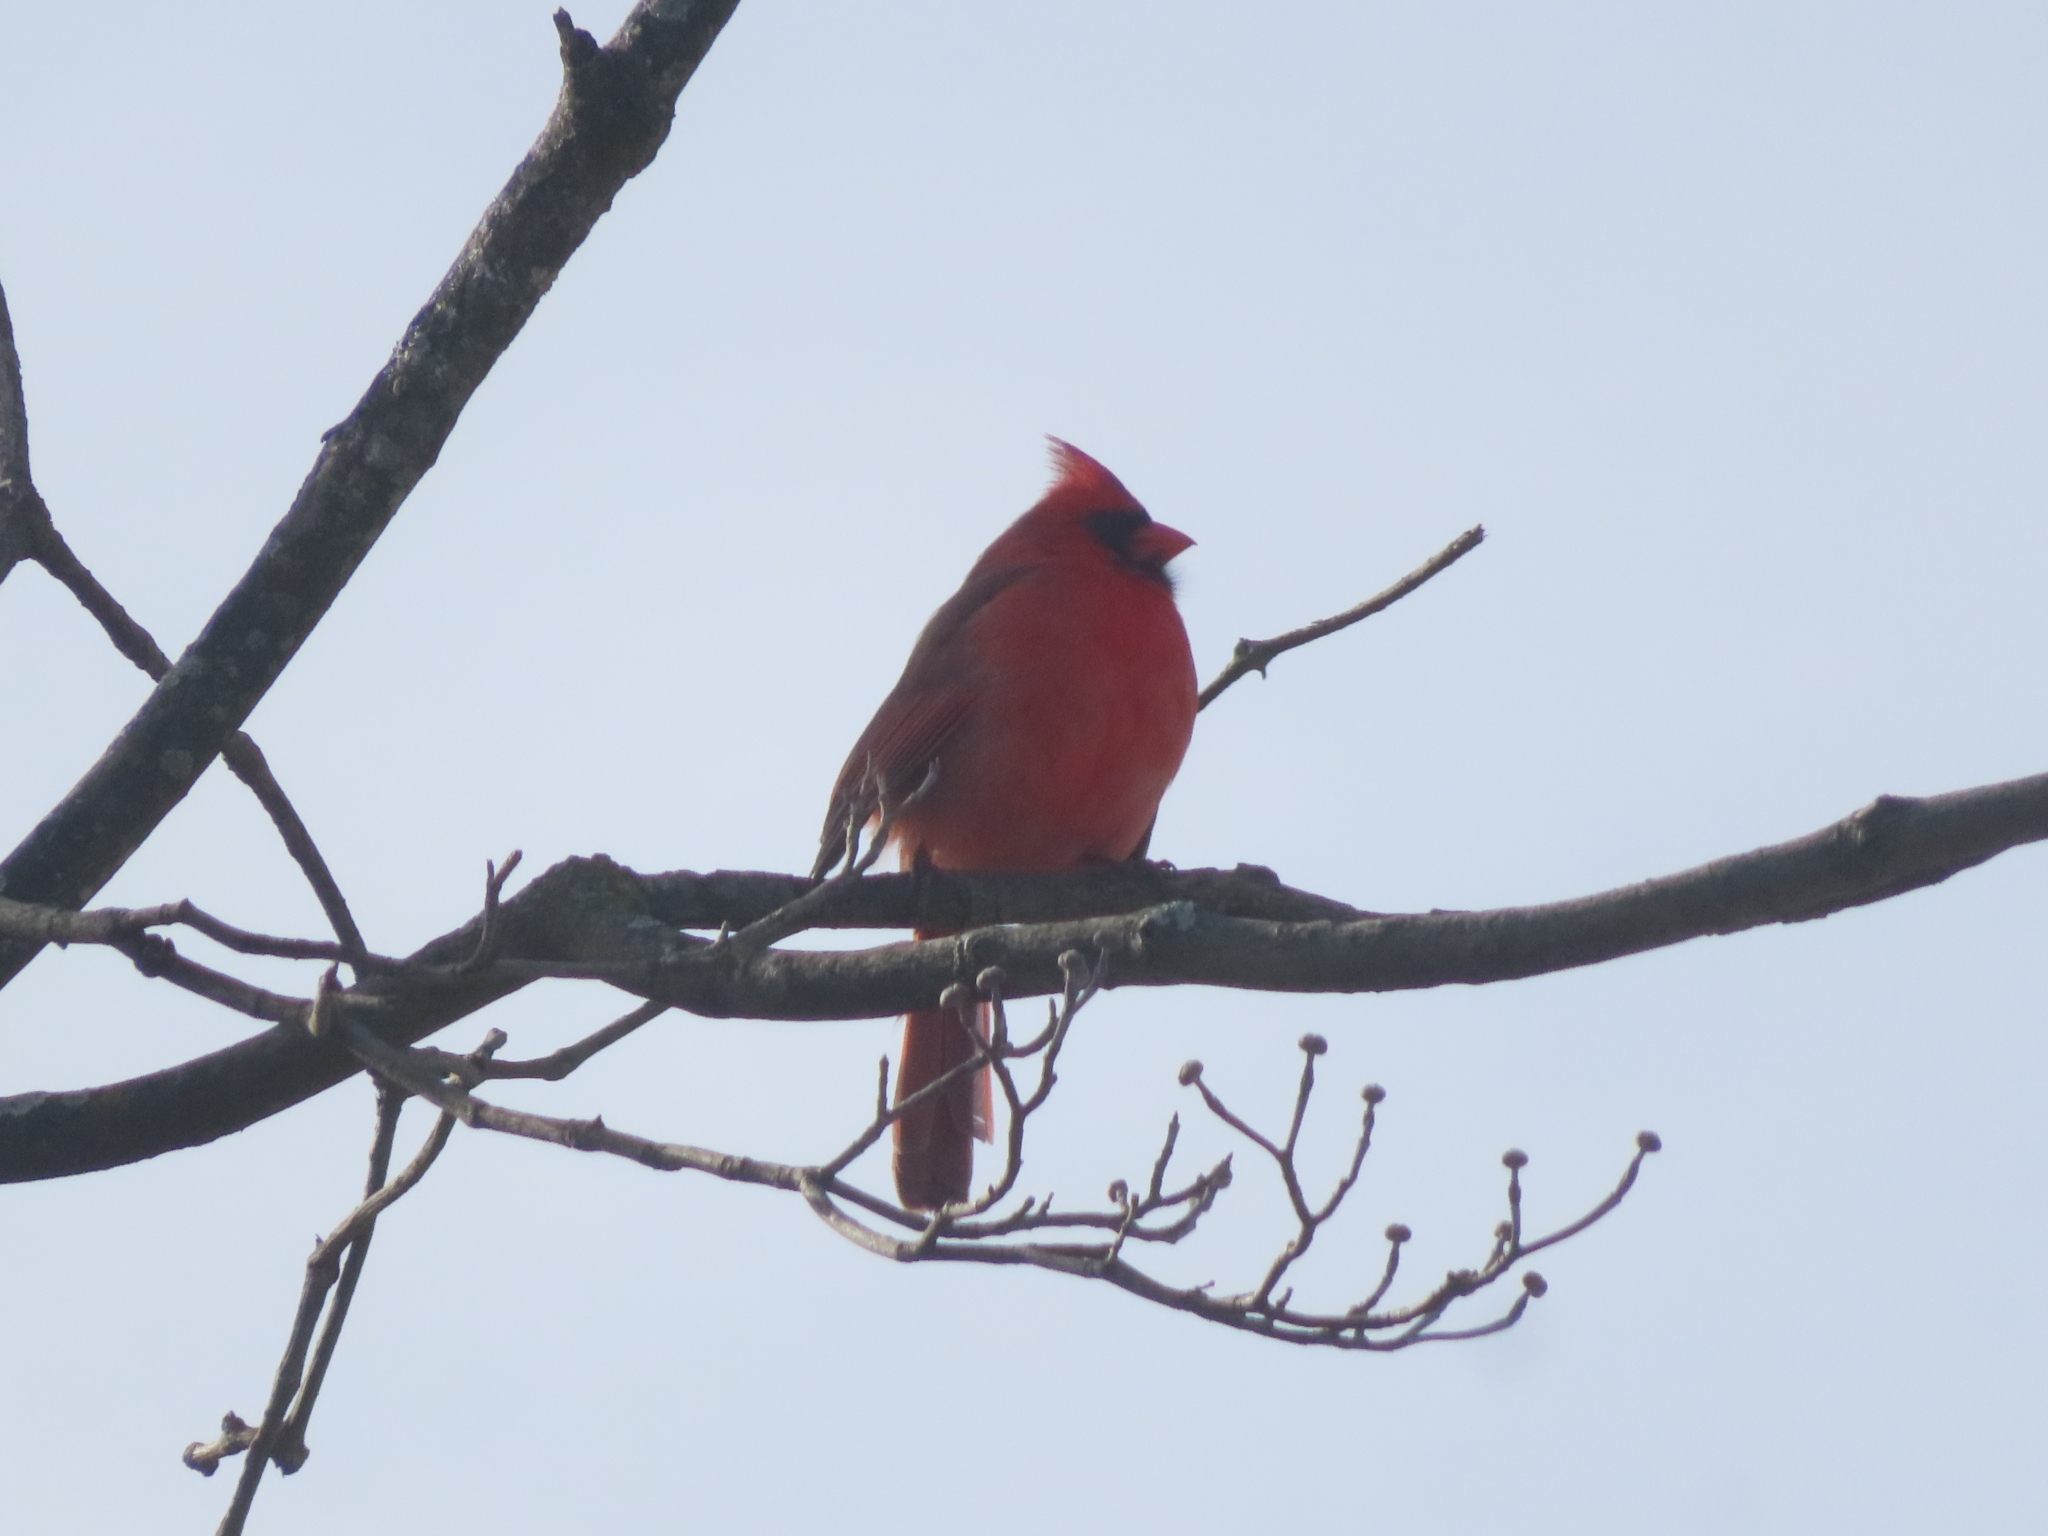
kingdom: Animalia
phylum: Chordata
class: Aves
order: Passeriformes
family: Cardinalidae
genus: Cardinalis
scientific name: Cardinalis cardinalis
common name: Northern cardinal
